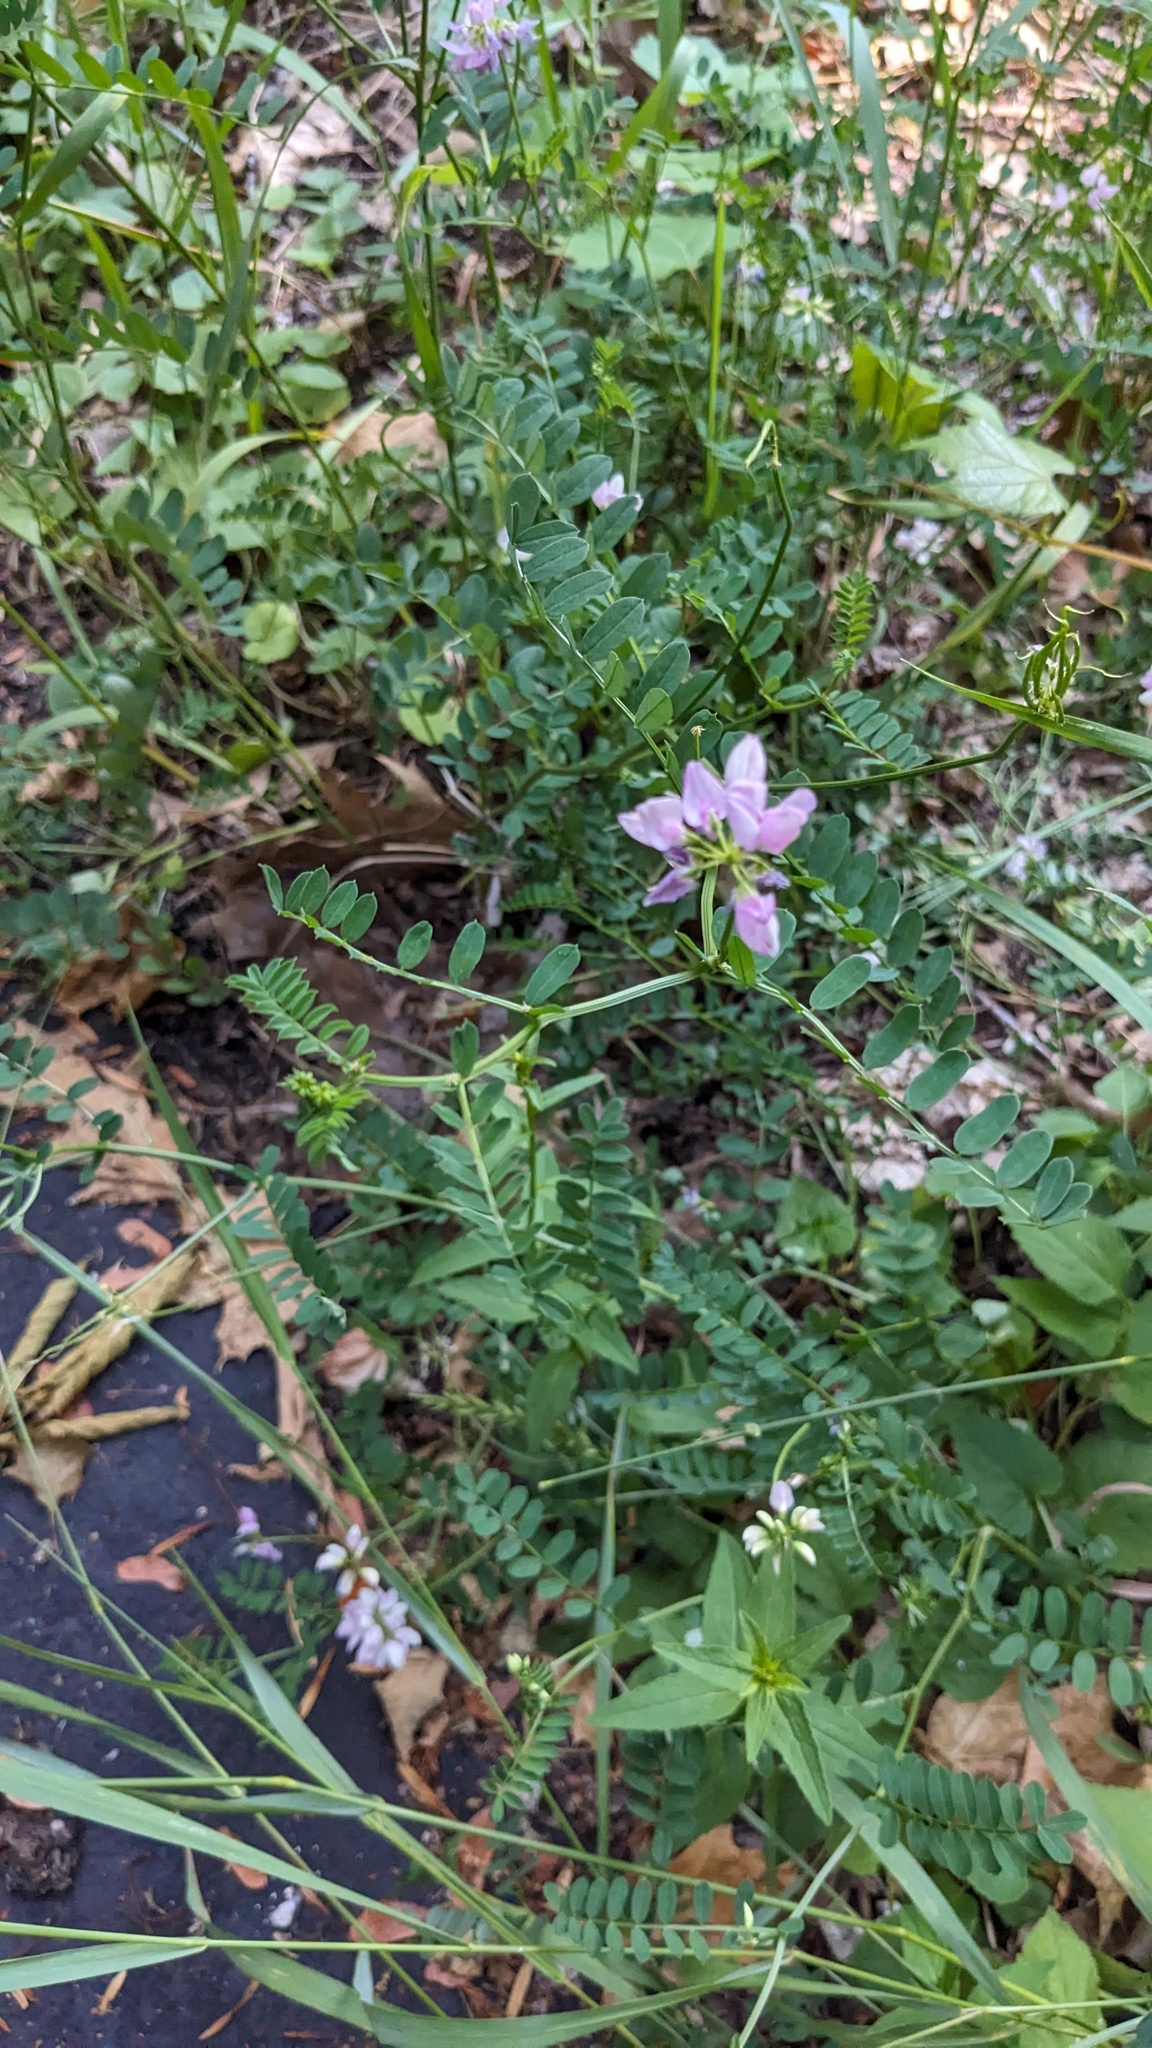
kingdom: Plantae
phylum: Tracheophyta
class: Magnoliopsida
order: Fabales
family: Fabaceae
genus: Coronilla
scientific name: Coronilla varia
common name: Crownvetch
